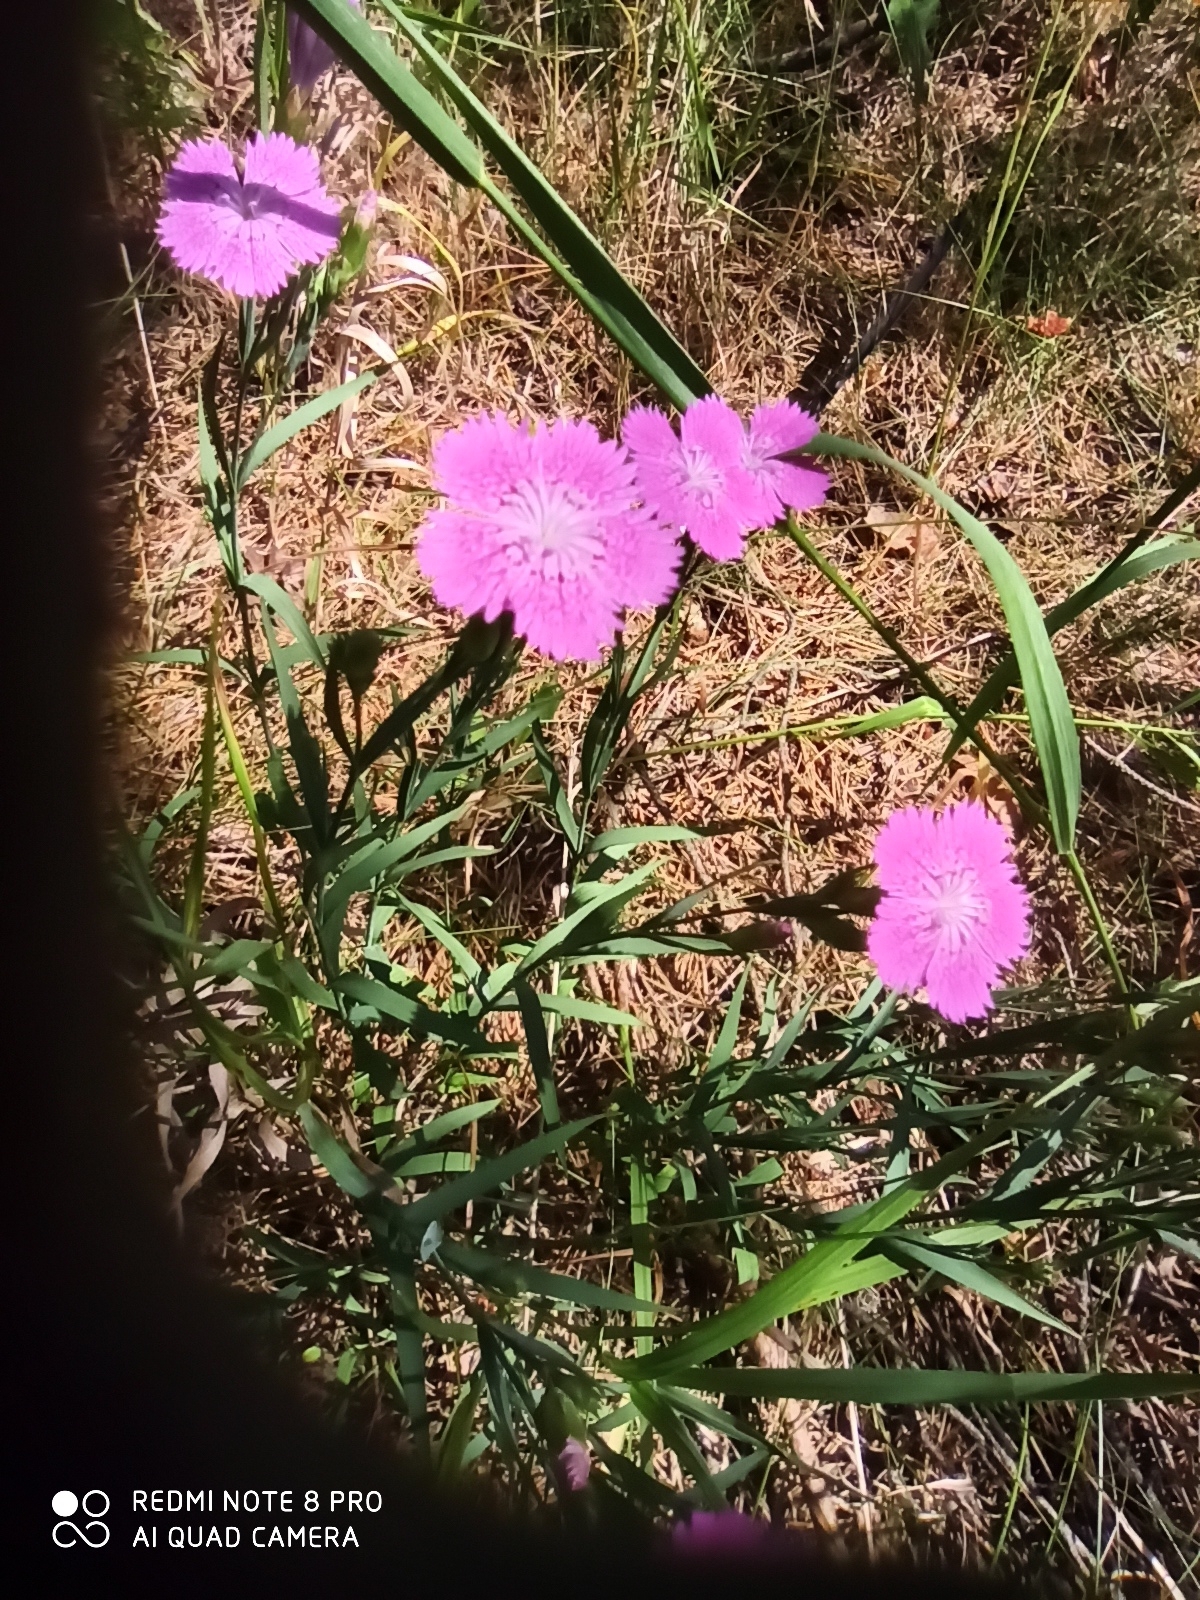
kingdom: Plantae
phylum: Tracheophyta
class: Magnoliopsida
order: Caryophyllales
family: Caryophyllaceae
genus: Dianthus
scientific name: Dianthus chinensis
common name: Rainbow pink
